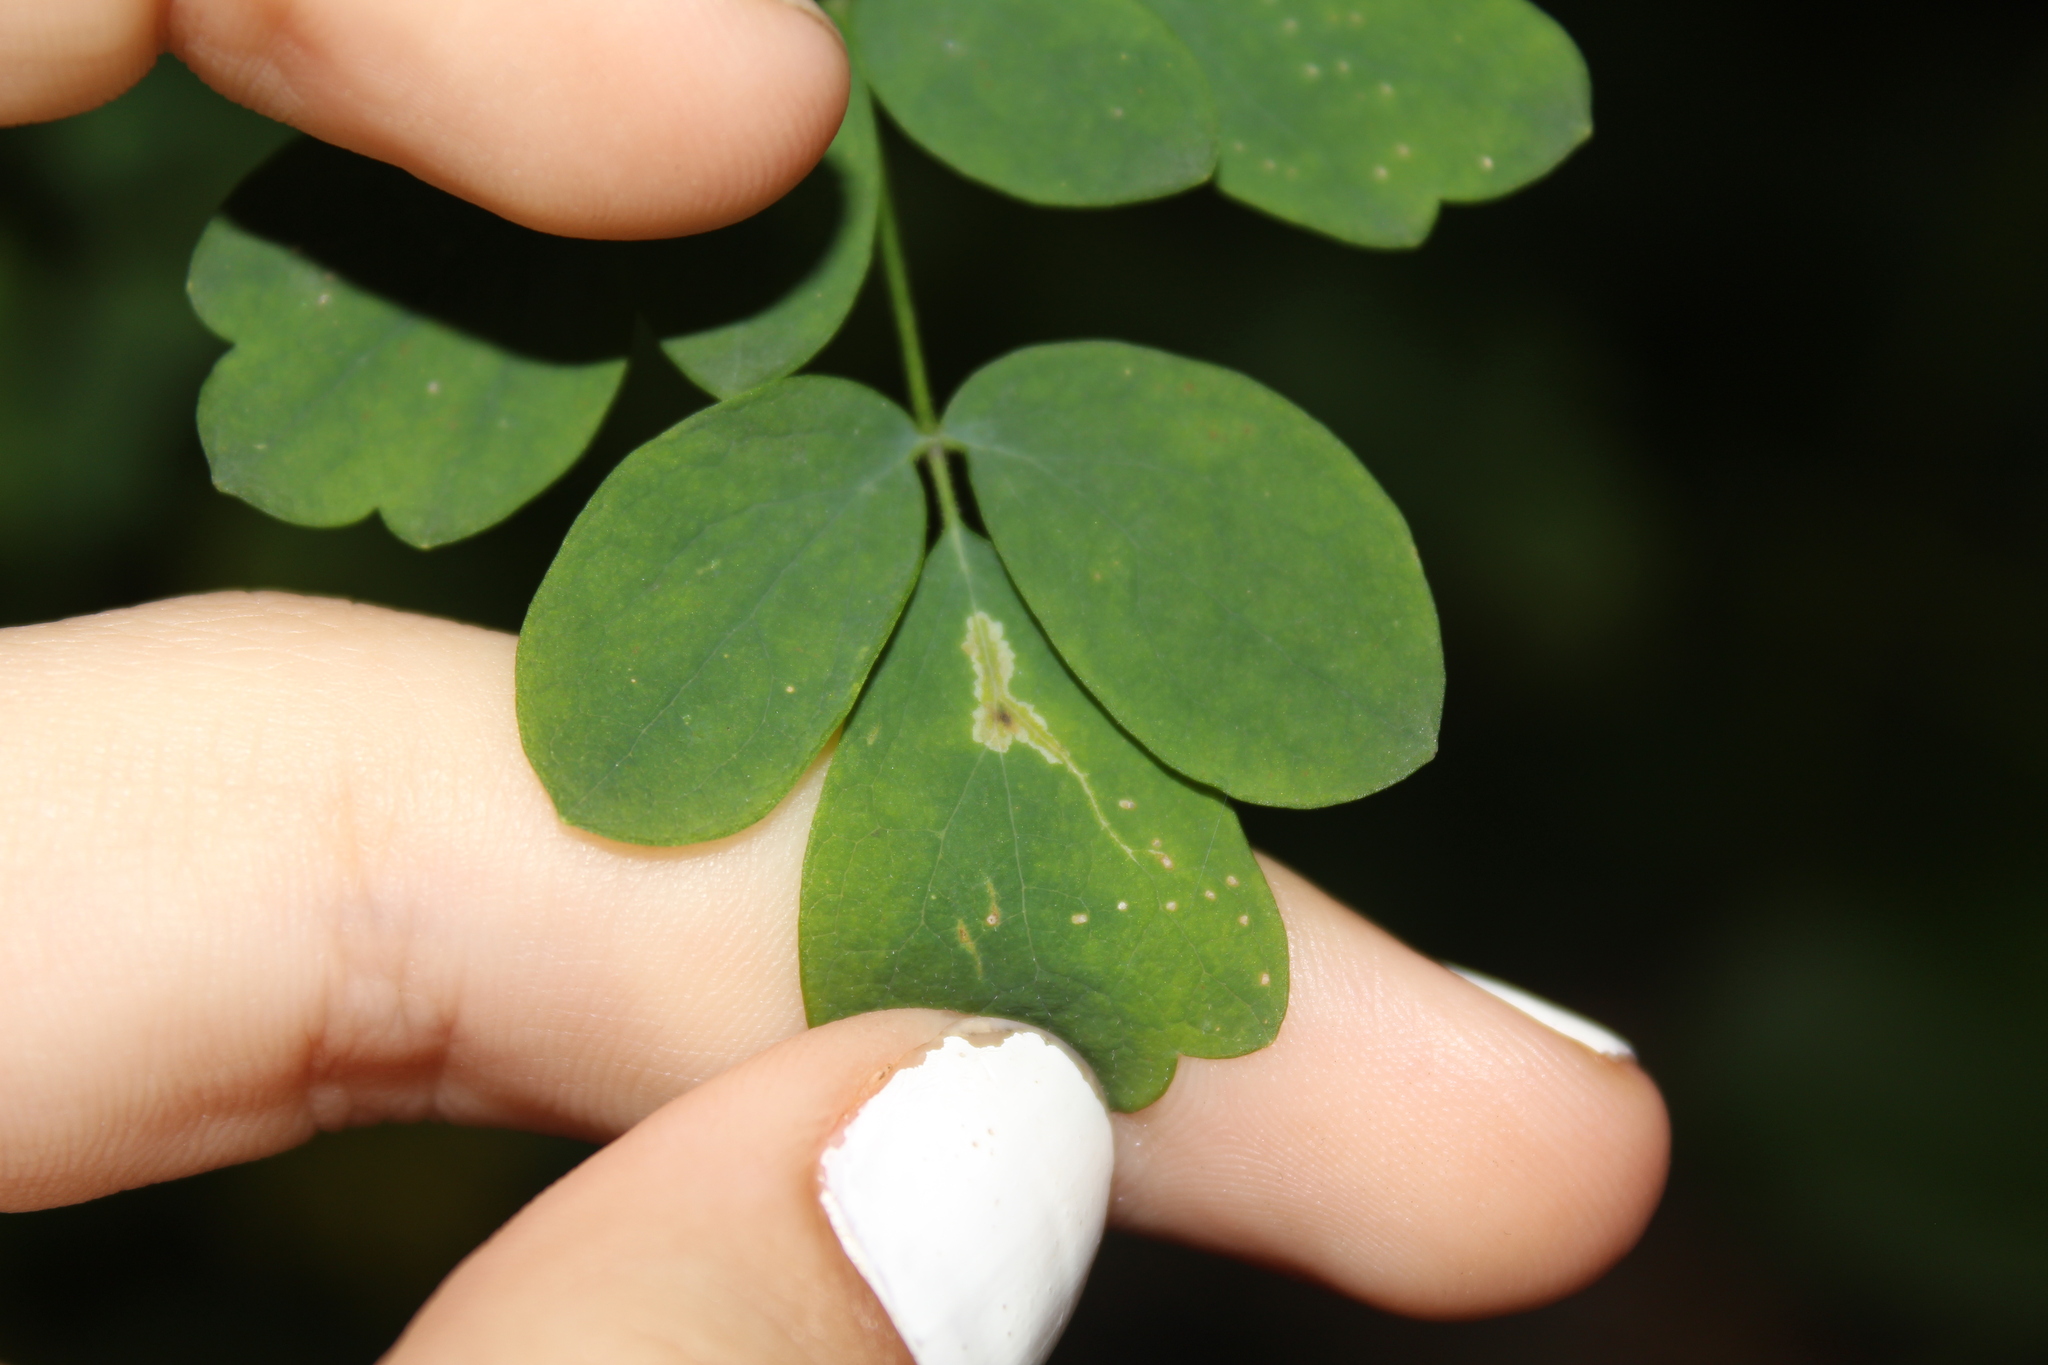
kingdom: Animalia
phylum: Arthropoda
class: Insecta
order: Diptera
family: Agromyzidae
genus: Phytomyza
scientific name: Phytomyza plumiseta
